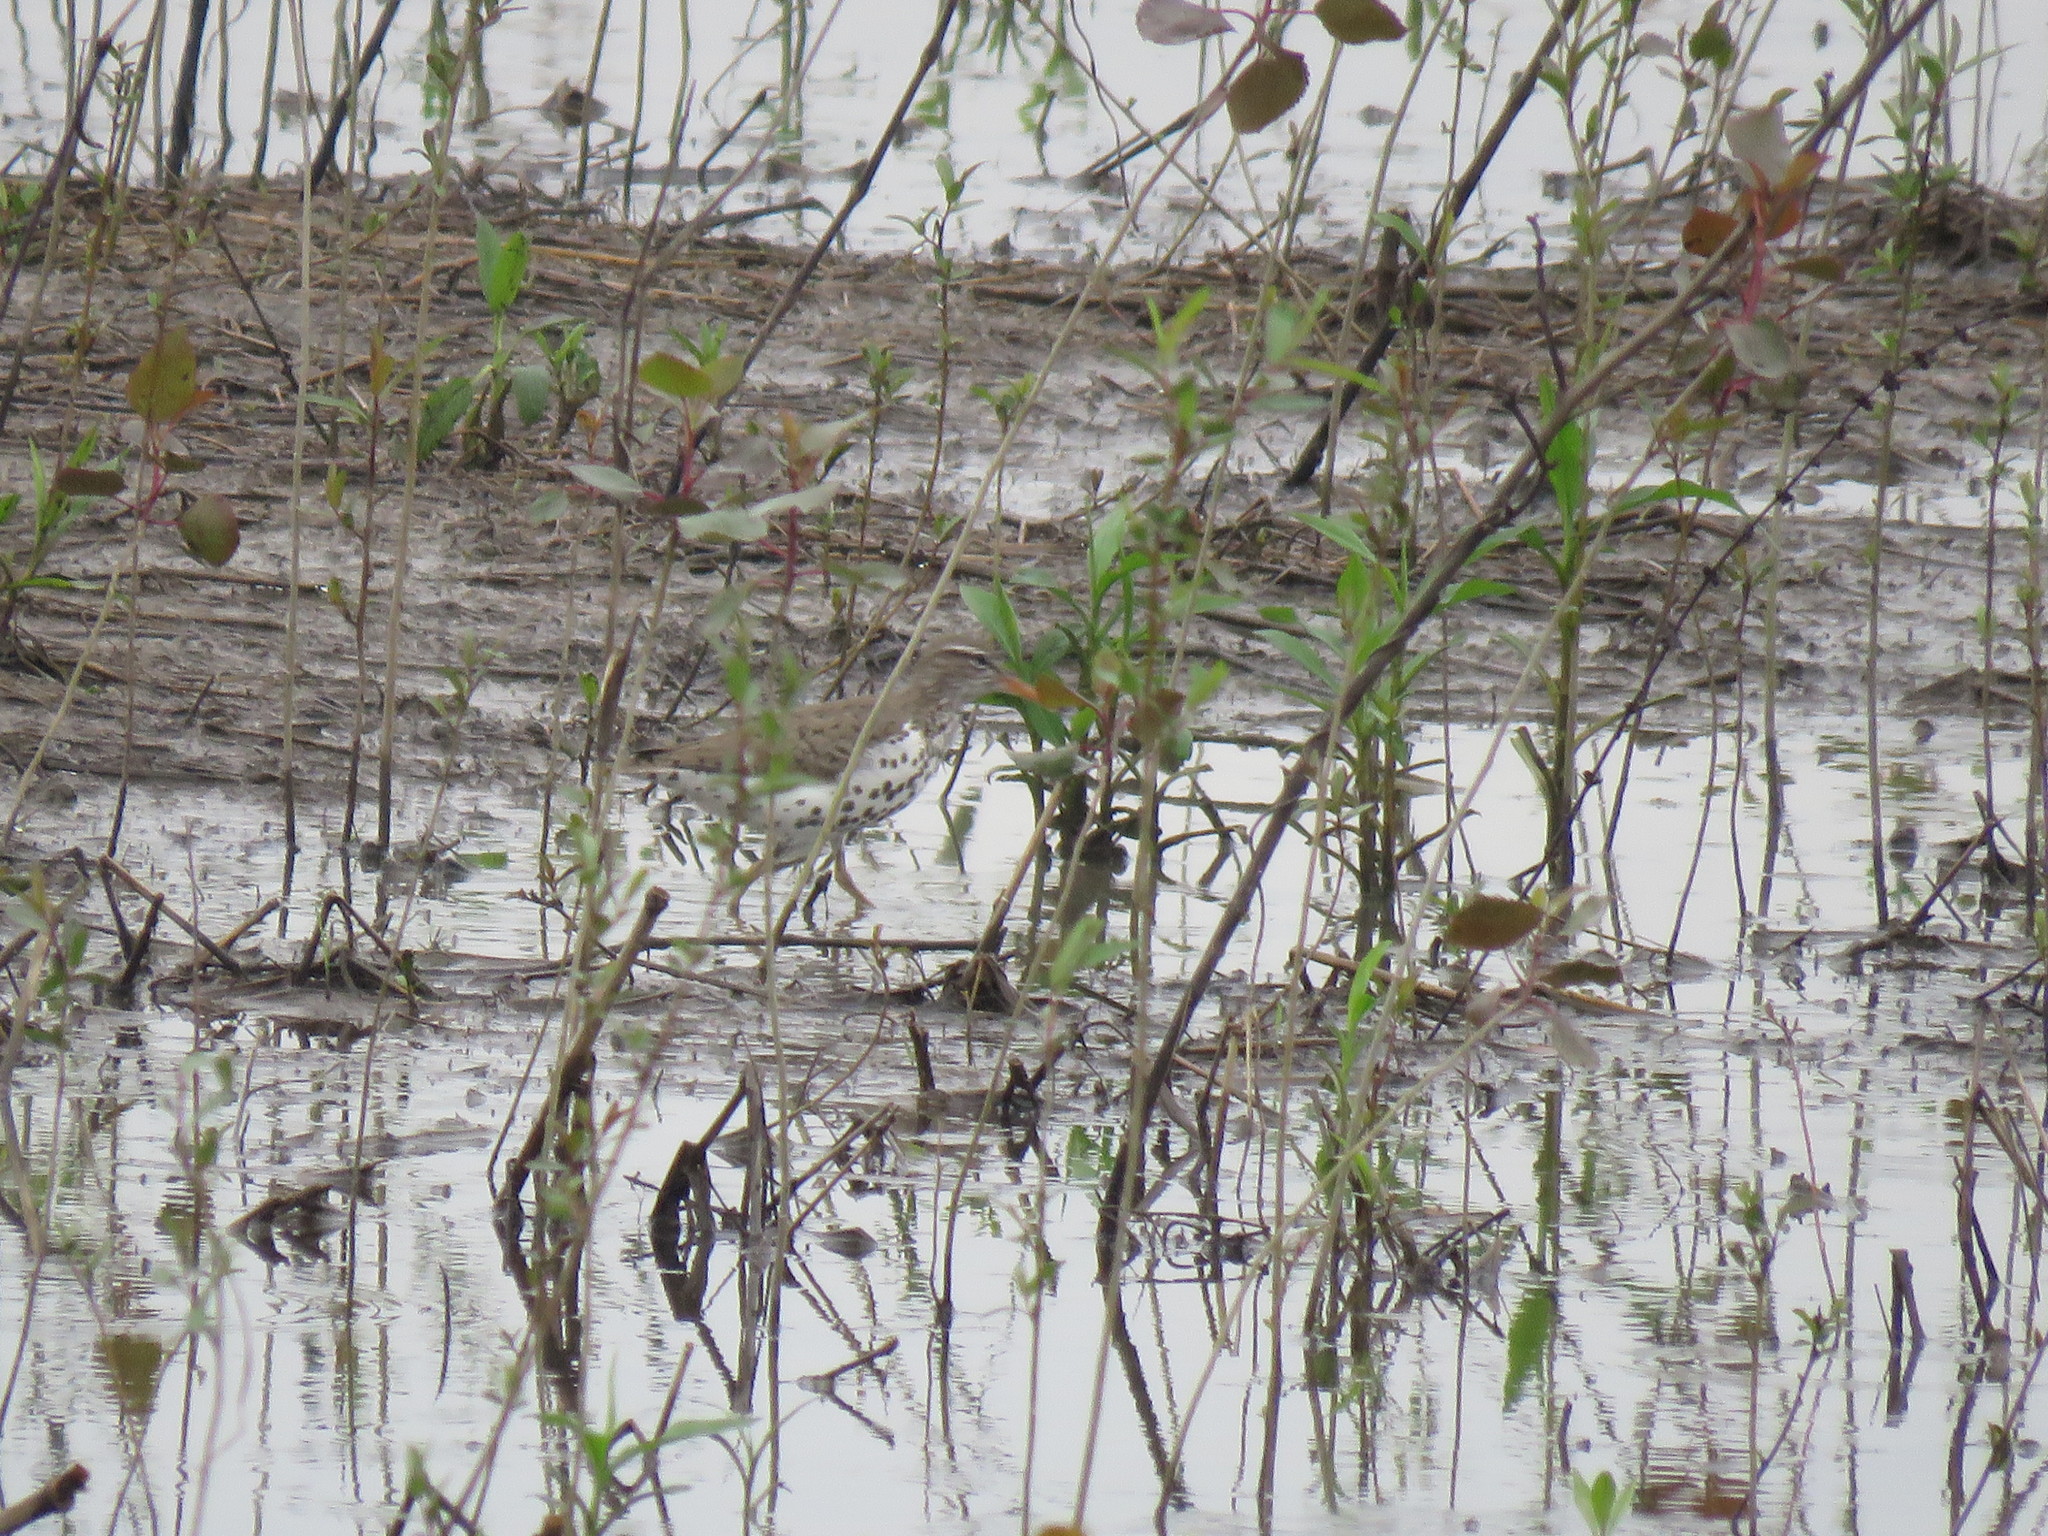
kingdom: Animalia
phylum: Chordata
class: Aves
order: Charadriiformes
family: Scolopacidae
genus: Actitis
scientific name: Actitis macularius
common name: Spotted sandpiper
